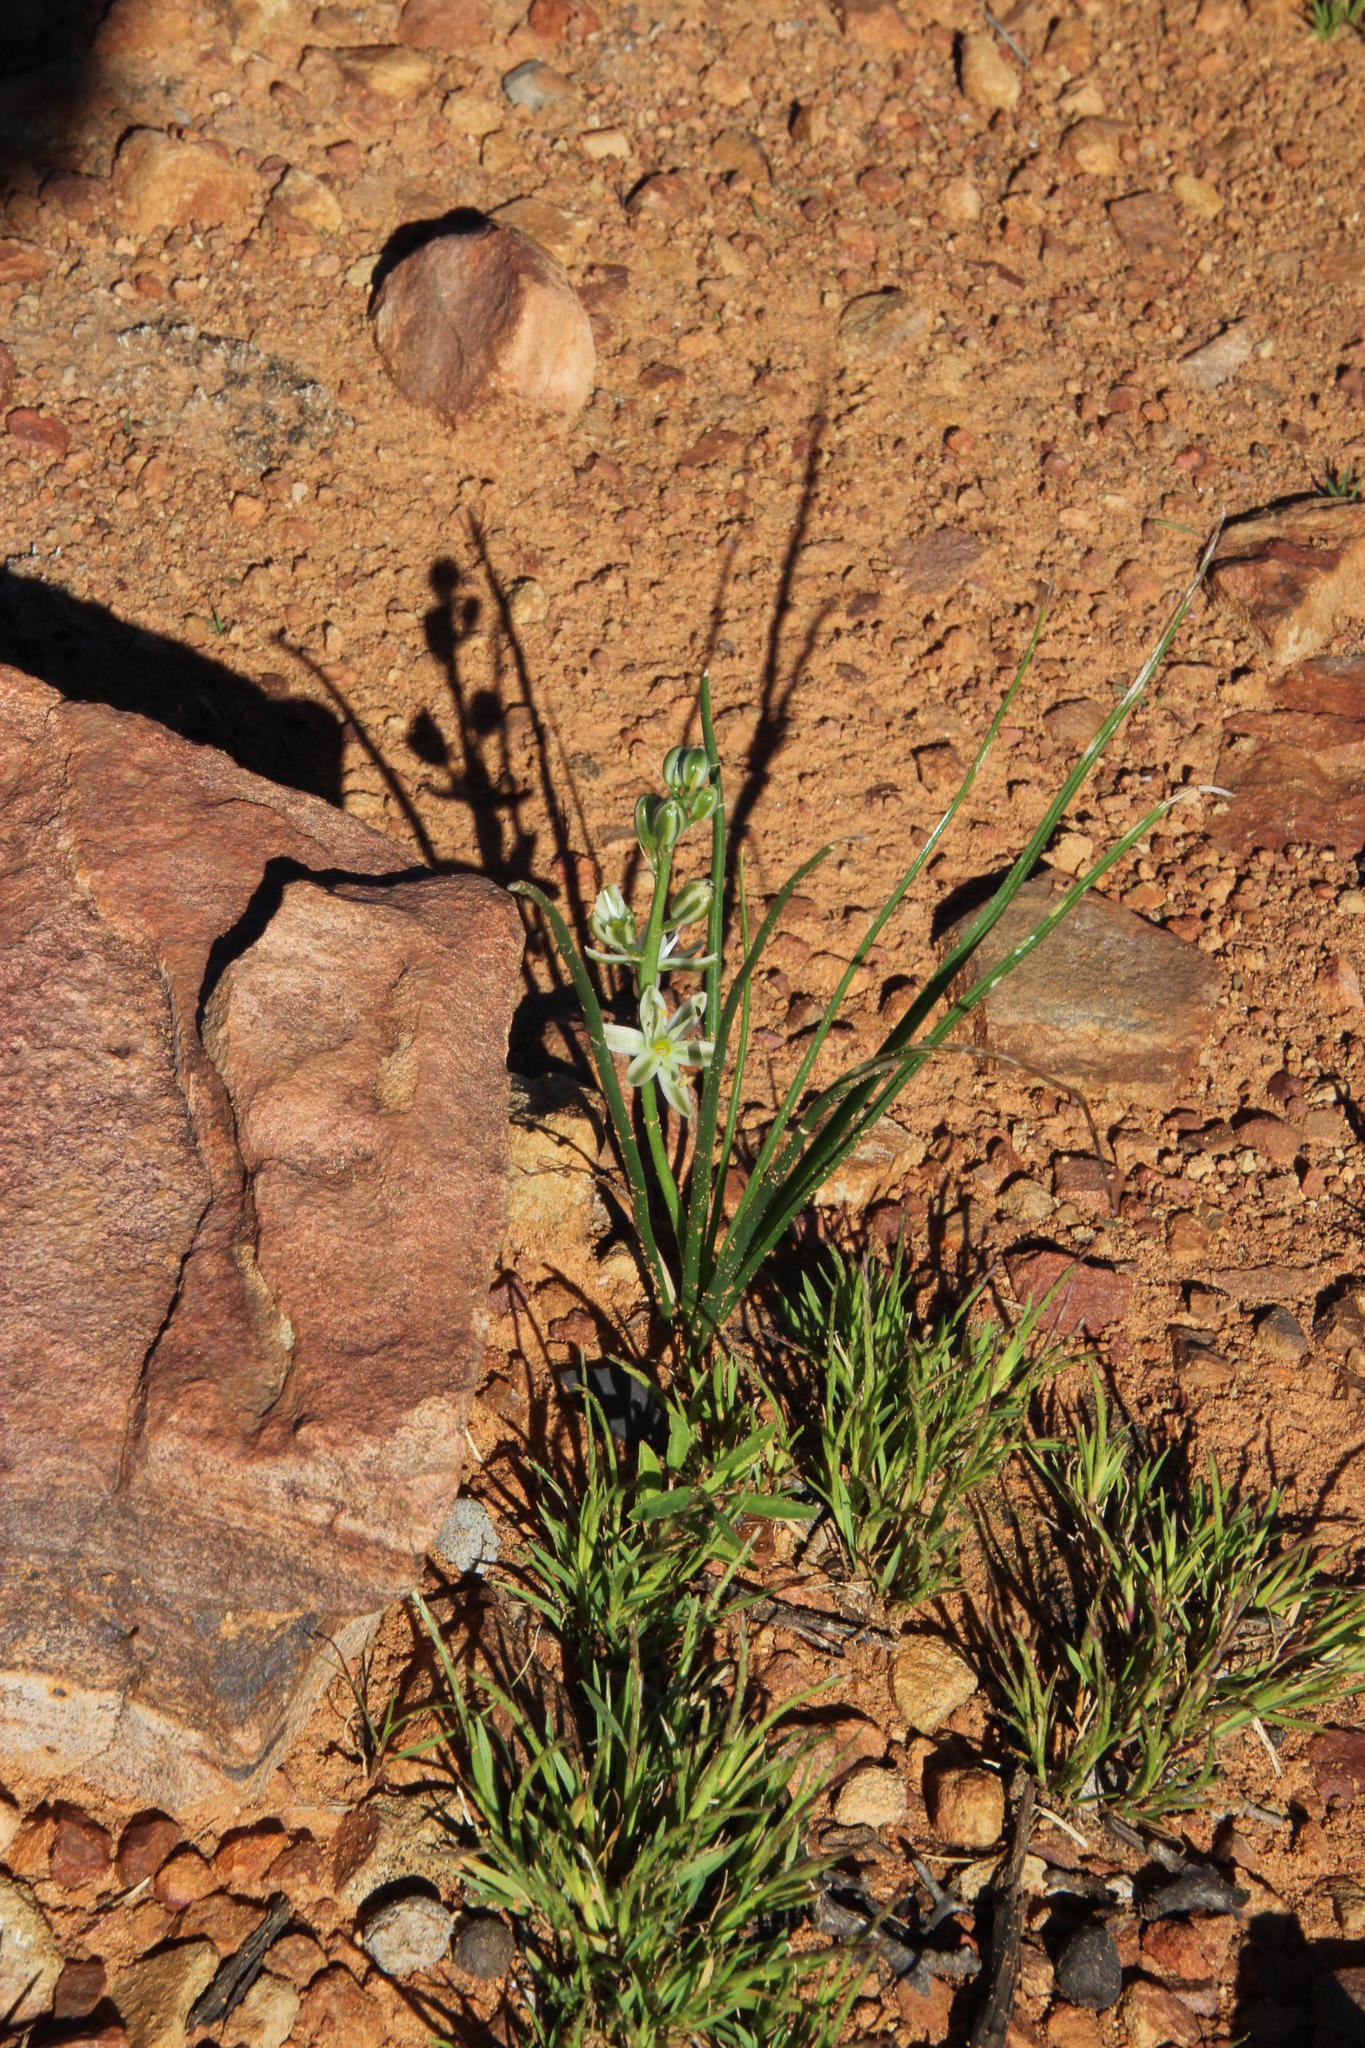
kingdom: Plantae
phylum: Tracheophyta
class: Liliopsida
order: Asparagales
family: Asparagaceae
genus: Albuca
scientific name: Albuca virens
